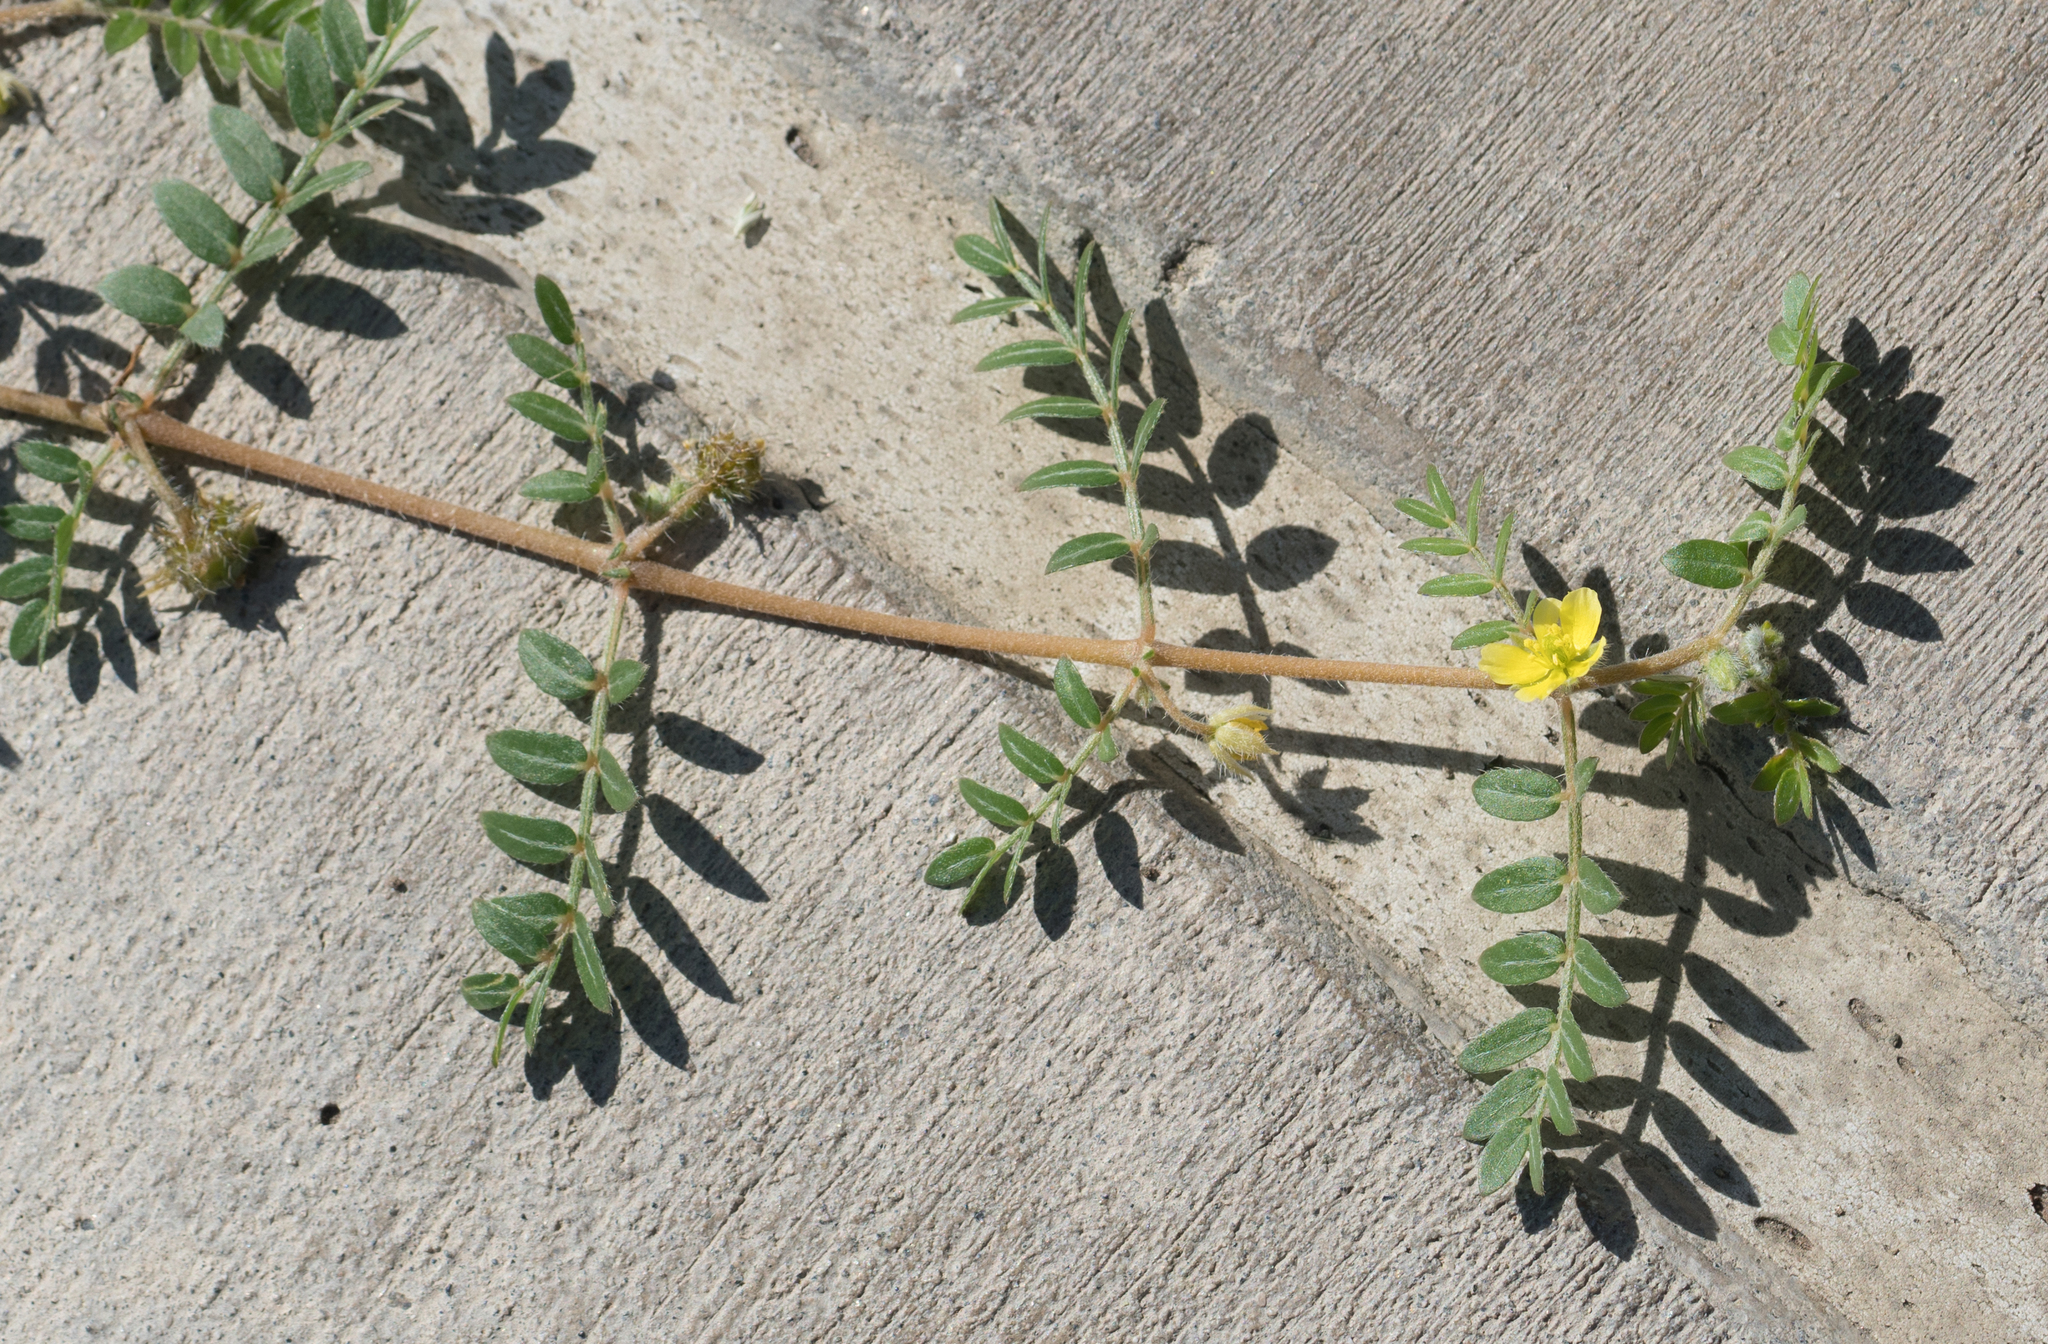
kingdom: Plantae
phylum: Tracheophyta
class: Magnoliopsida
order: Zygophyllales
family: Zygophyllaceae
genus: Tribulus
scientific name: Tribulus terrestris
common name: Puncturevine
